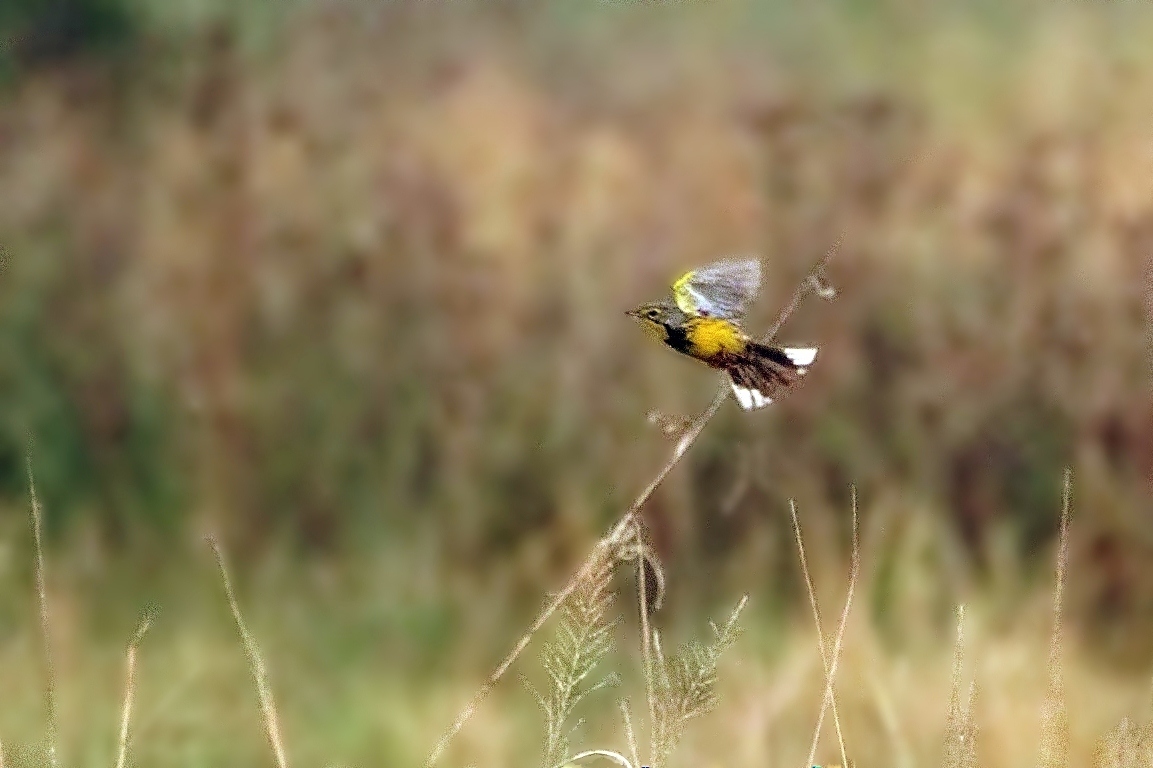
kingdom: Animalia
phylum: Chordata
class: Aves
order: Passeriformes
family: Motacillidae
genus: Macronyx
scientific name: Macronyx croceus
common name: Yellow-throated longclaw
